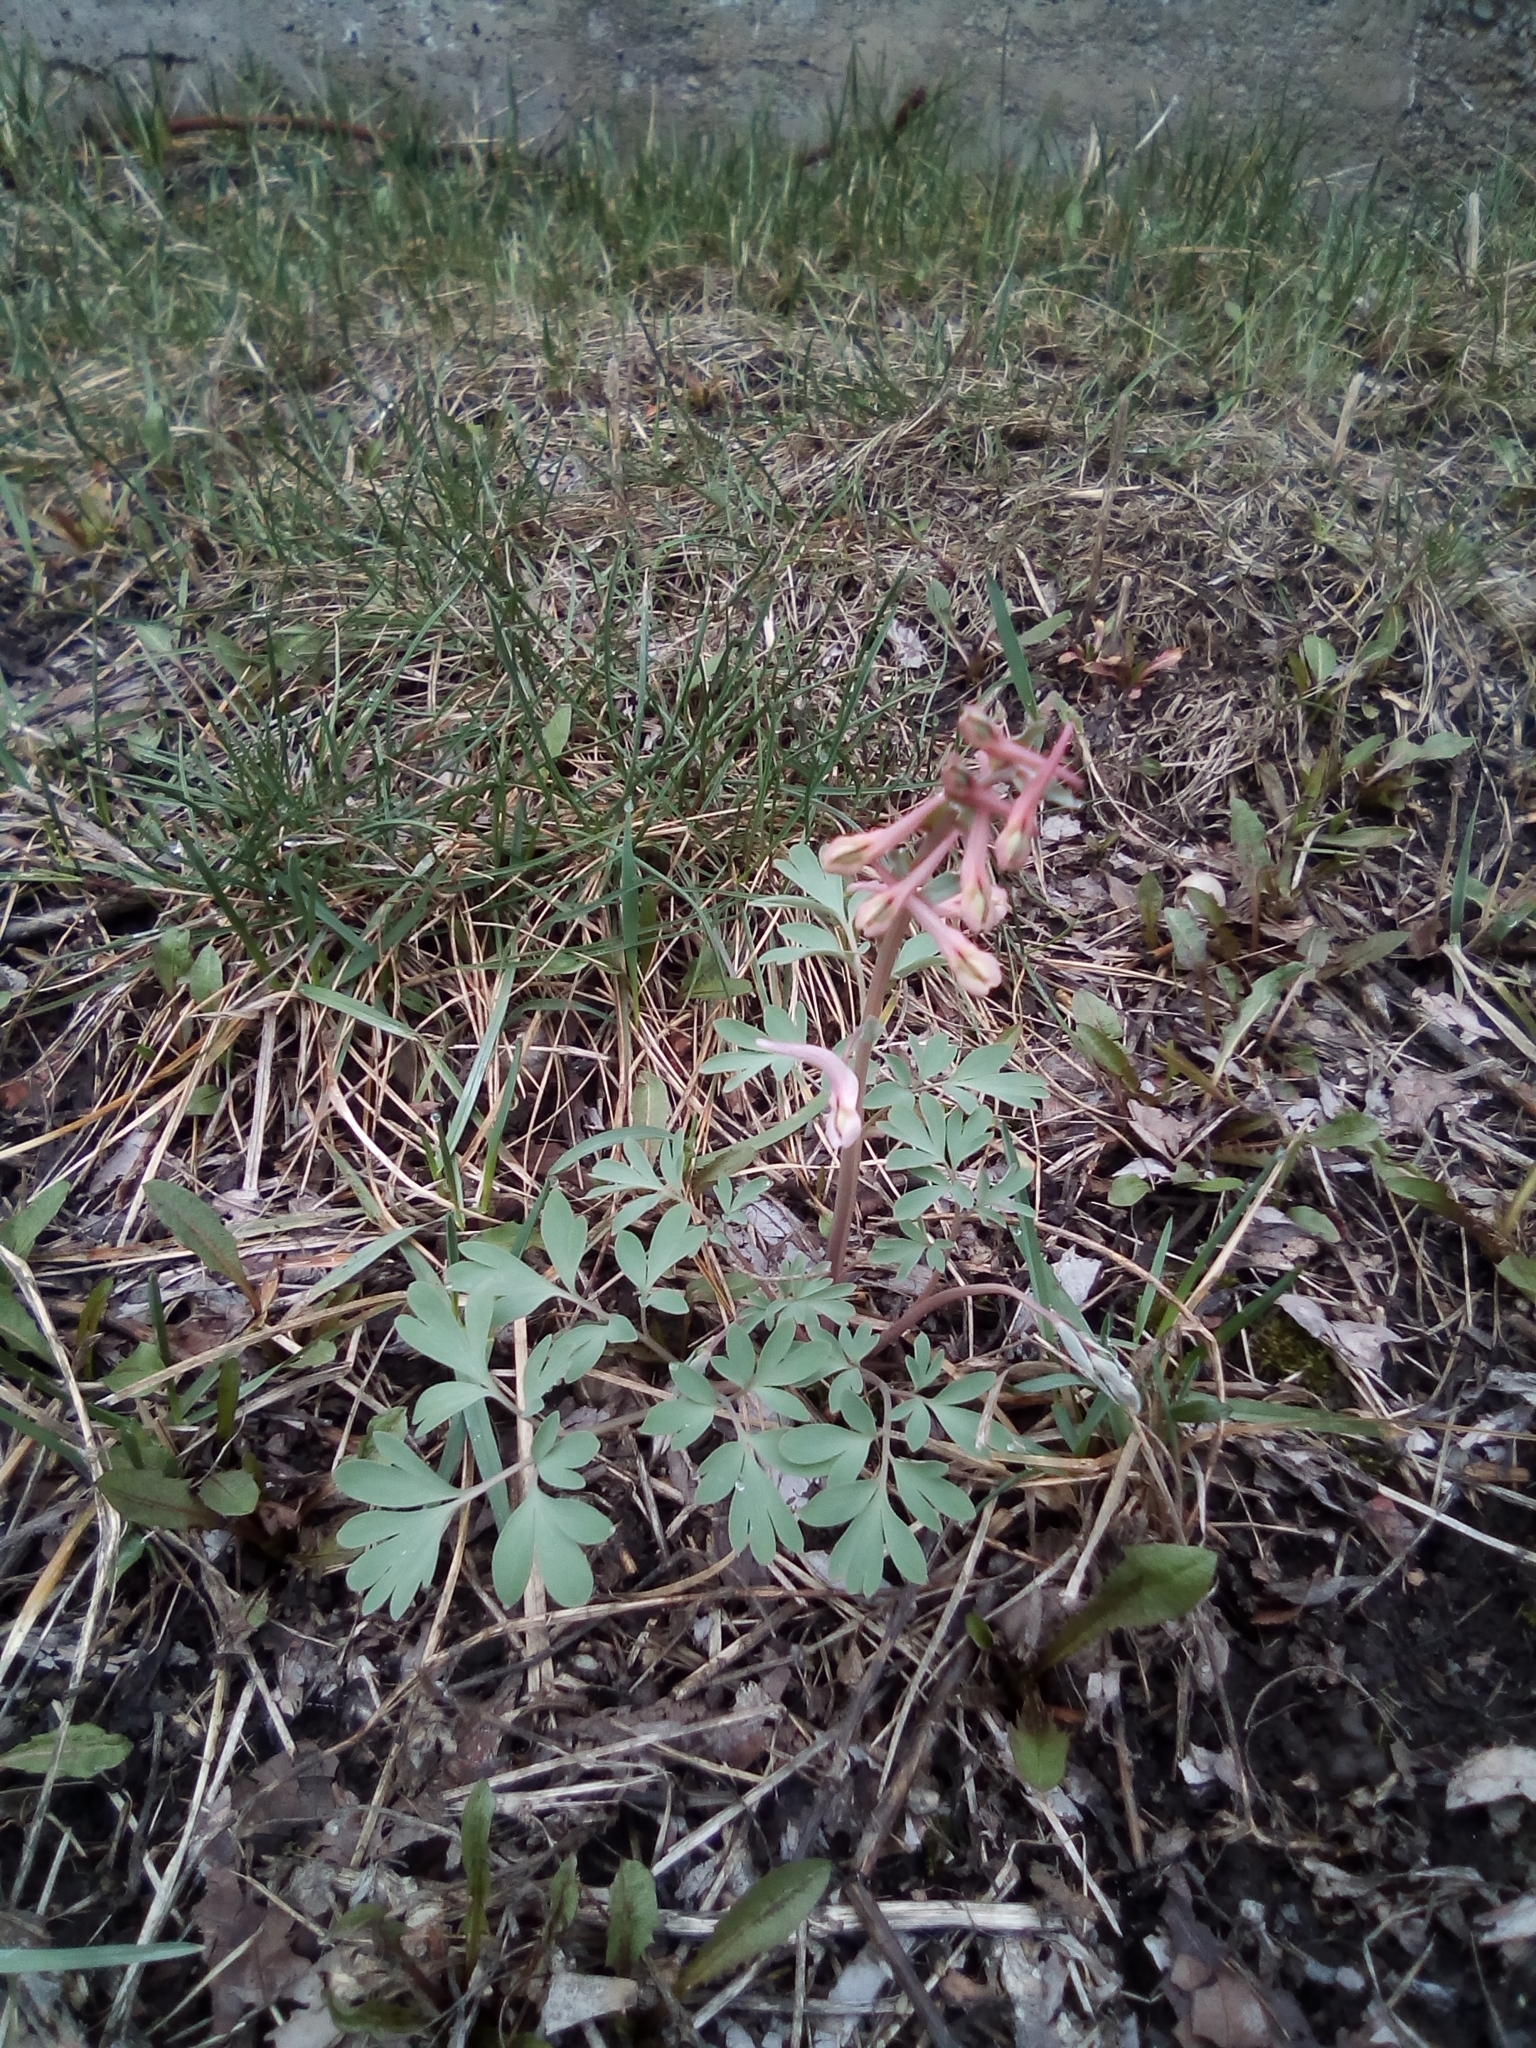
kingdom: Plantae
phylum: Tracheophyta
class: Magnoliopsida
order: Ranunculales
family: Papaveraceae
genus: Corydalis
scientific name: Corydalis glaucescens
